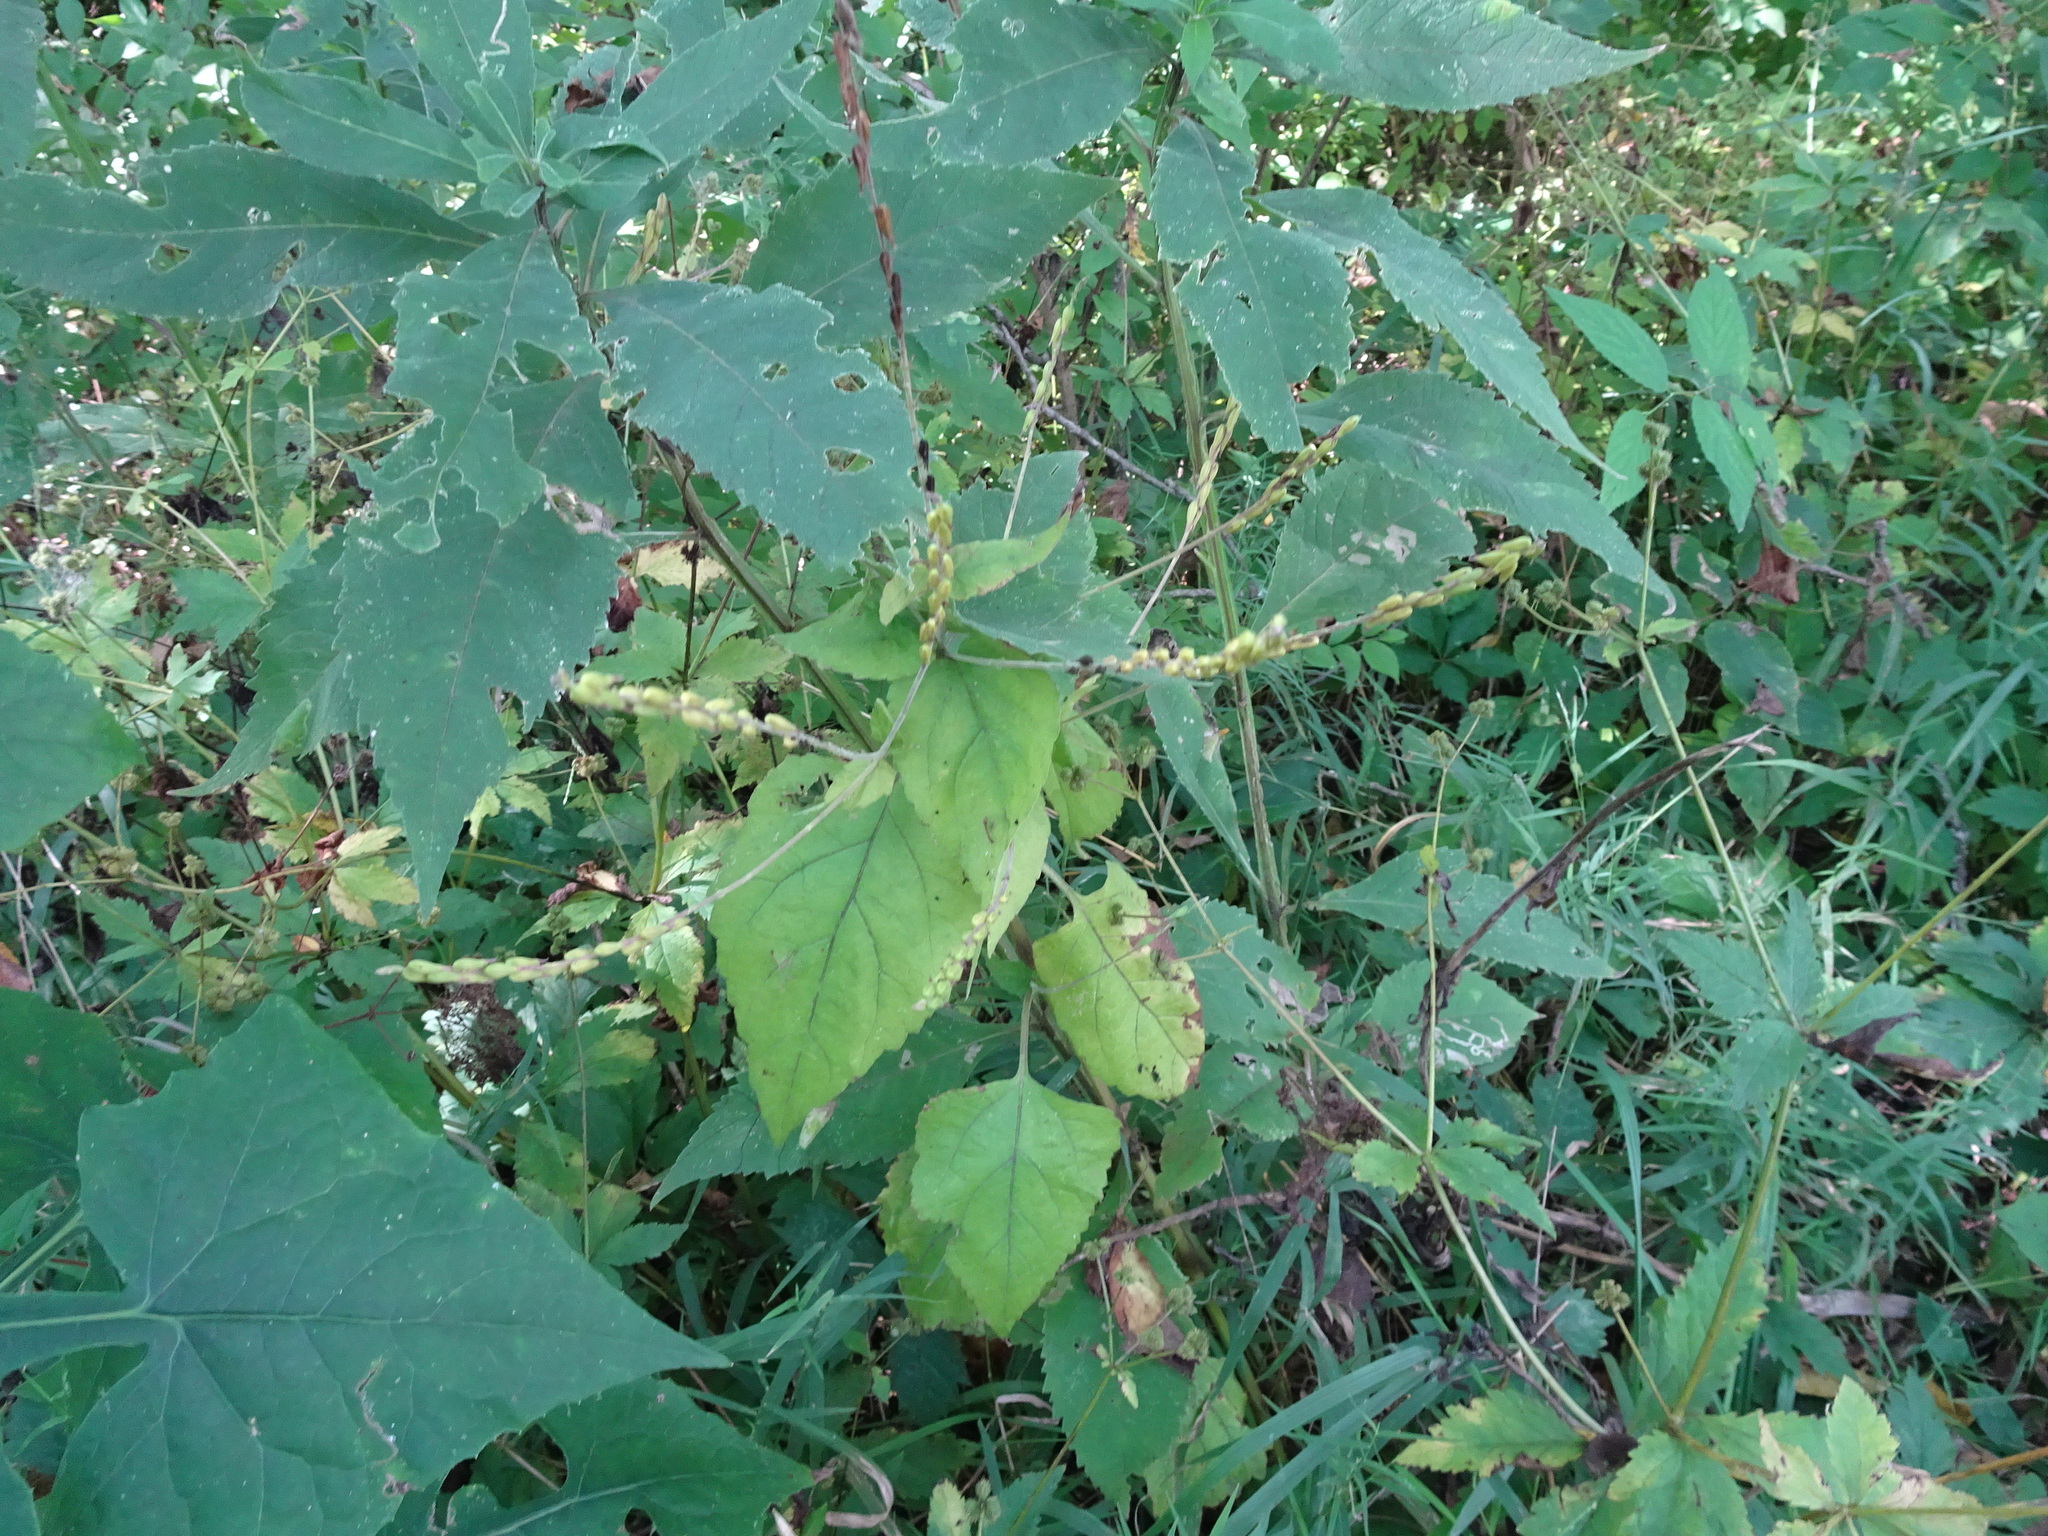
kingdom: Plantae
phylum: Tracheophyta
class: Magnoliopsida
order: Lamiales
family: Phrymaceae
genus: Phryma
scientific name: Phryma leptostachya
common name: American lopseed
